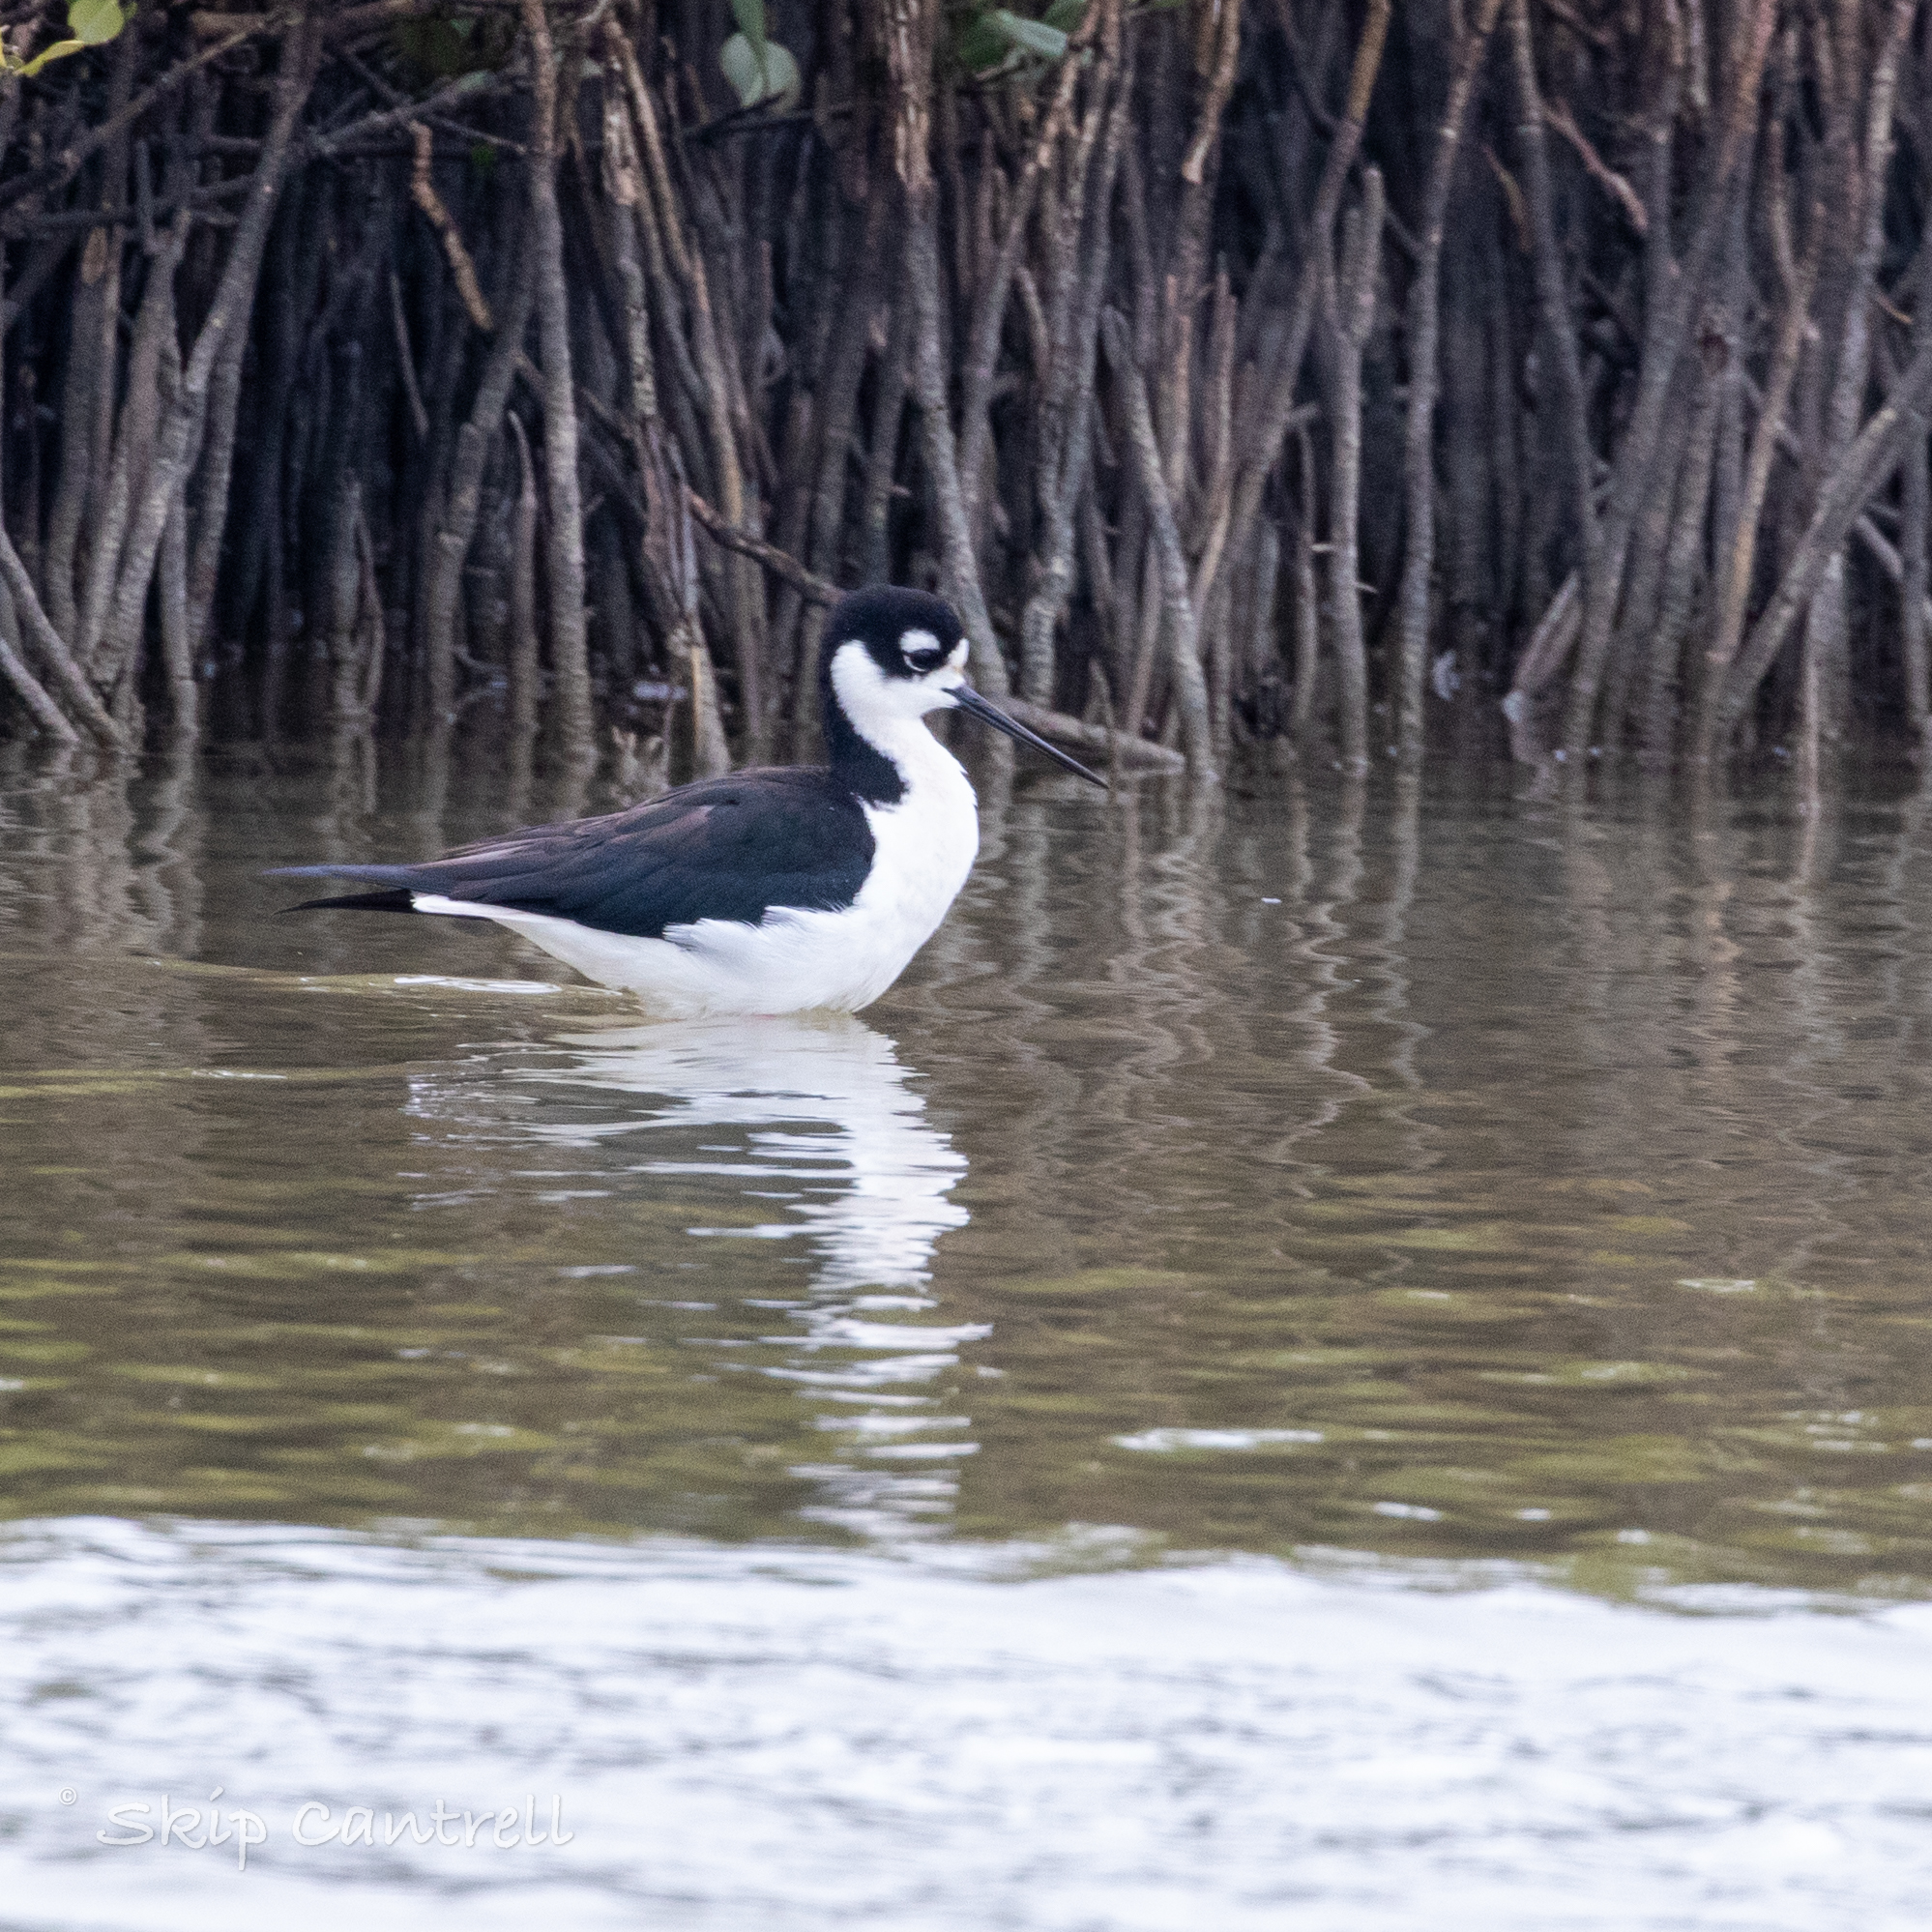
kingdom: Animalia
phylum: Chordata
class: Aves
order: Charadriiformes
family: Recurvirostridae
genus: Himantopus
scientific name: Himantopus mexicanus
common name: Black-necked stilt
